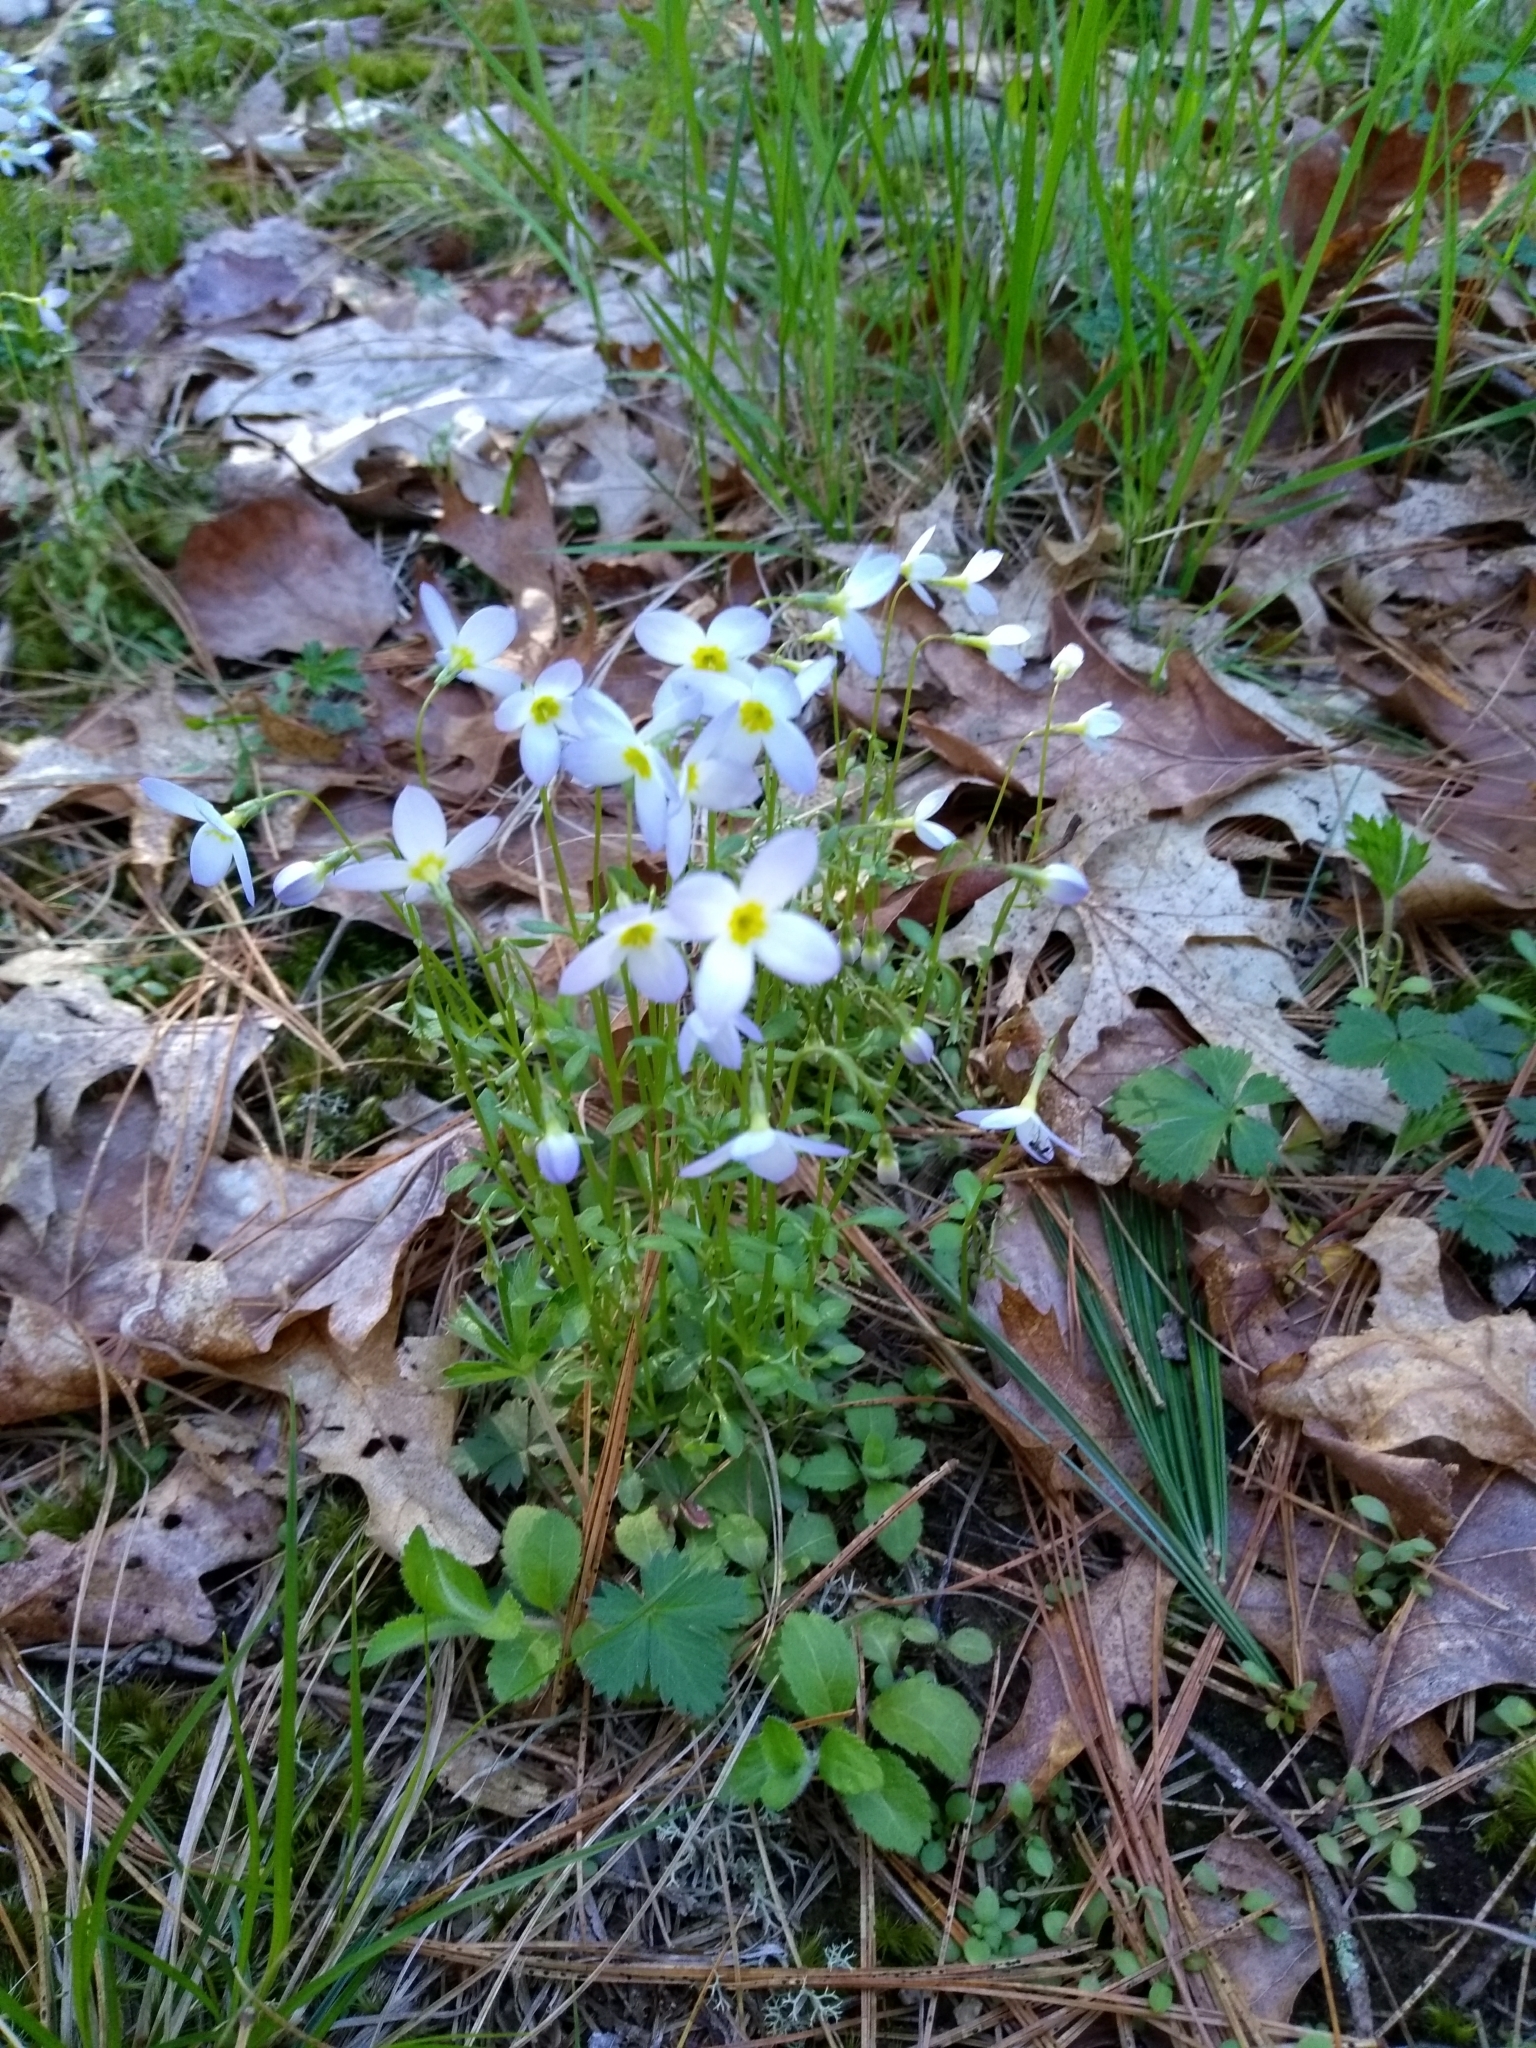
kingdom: Plantae
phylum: Tracheophyta
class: Magnoliopsida
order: Gentianales
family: Rubiaceae
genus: Houstonia
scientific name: Houstonia caerulea
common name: Bluets
